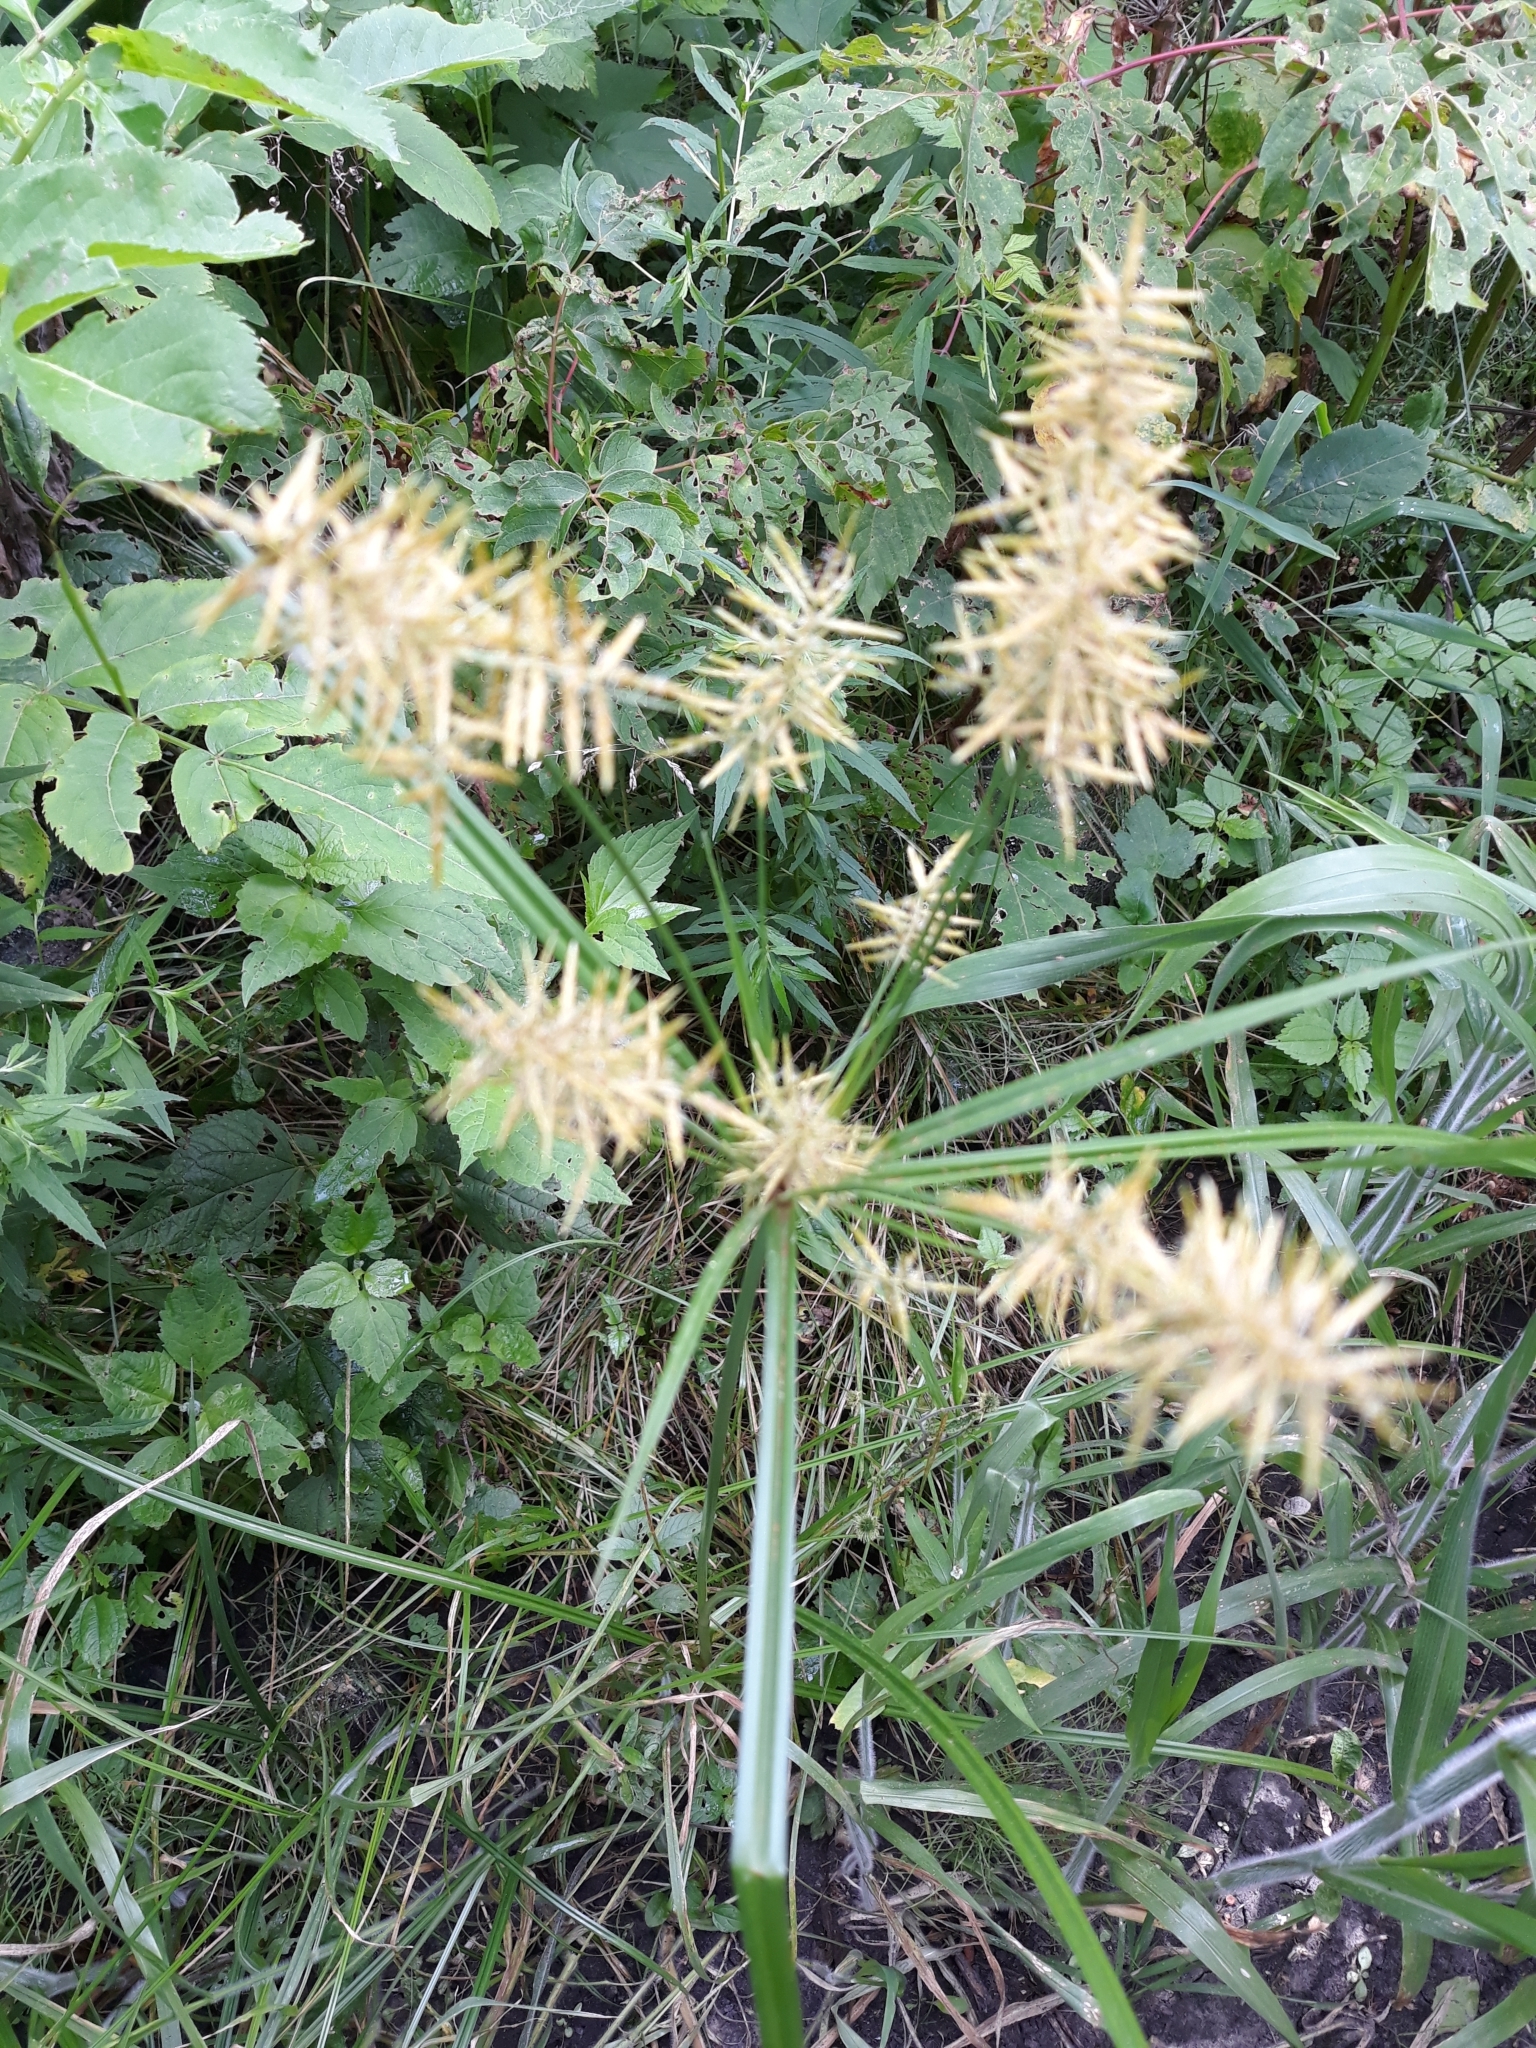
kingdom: Plantae
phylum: Tracheophyta
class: Liliopsida
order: Poales
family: Cyperaceae
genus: Cyperus
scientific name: Cyperus esculentus
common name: Yellow nutsedge
